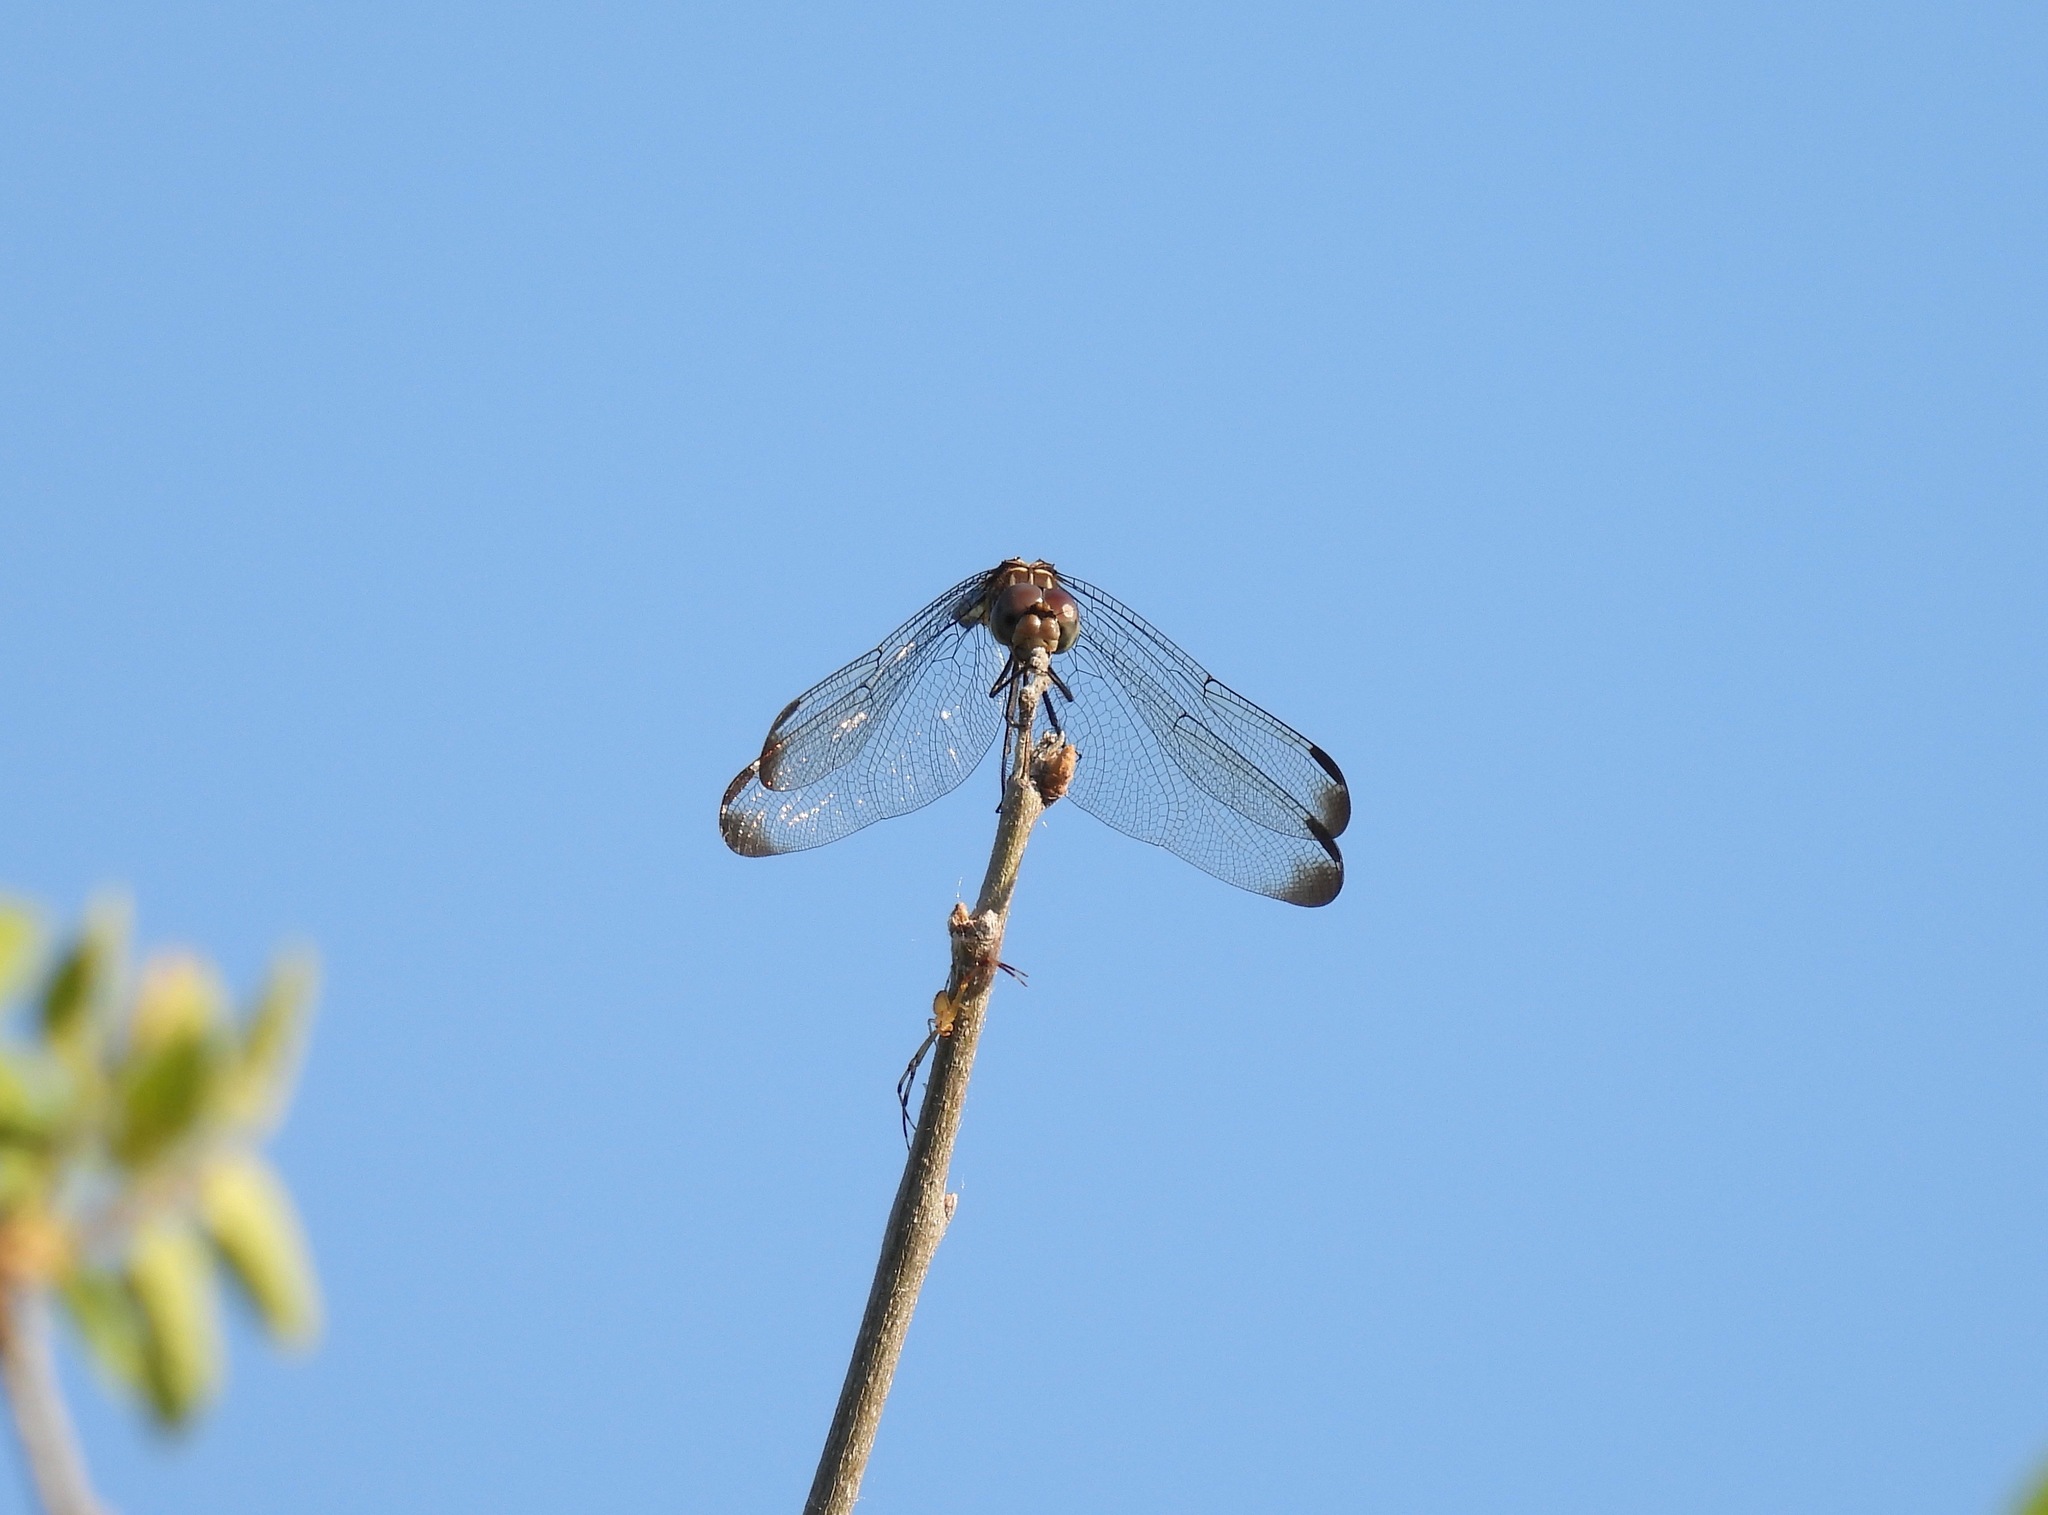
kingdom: Animalia
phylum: Arthropoda
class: Insecta
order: Odonata
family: Libellulidae
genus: Dythemis
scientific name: Dythemis velox
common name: Swift setwing
